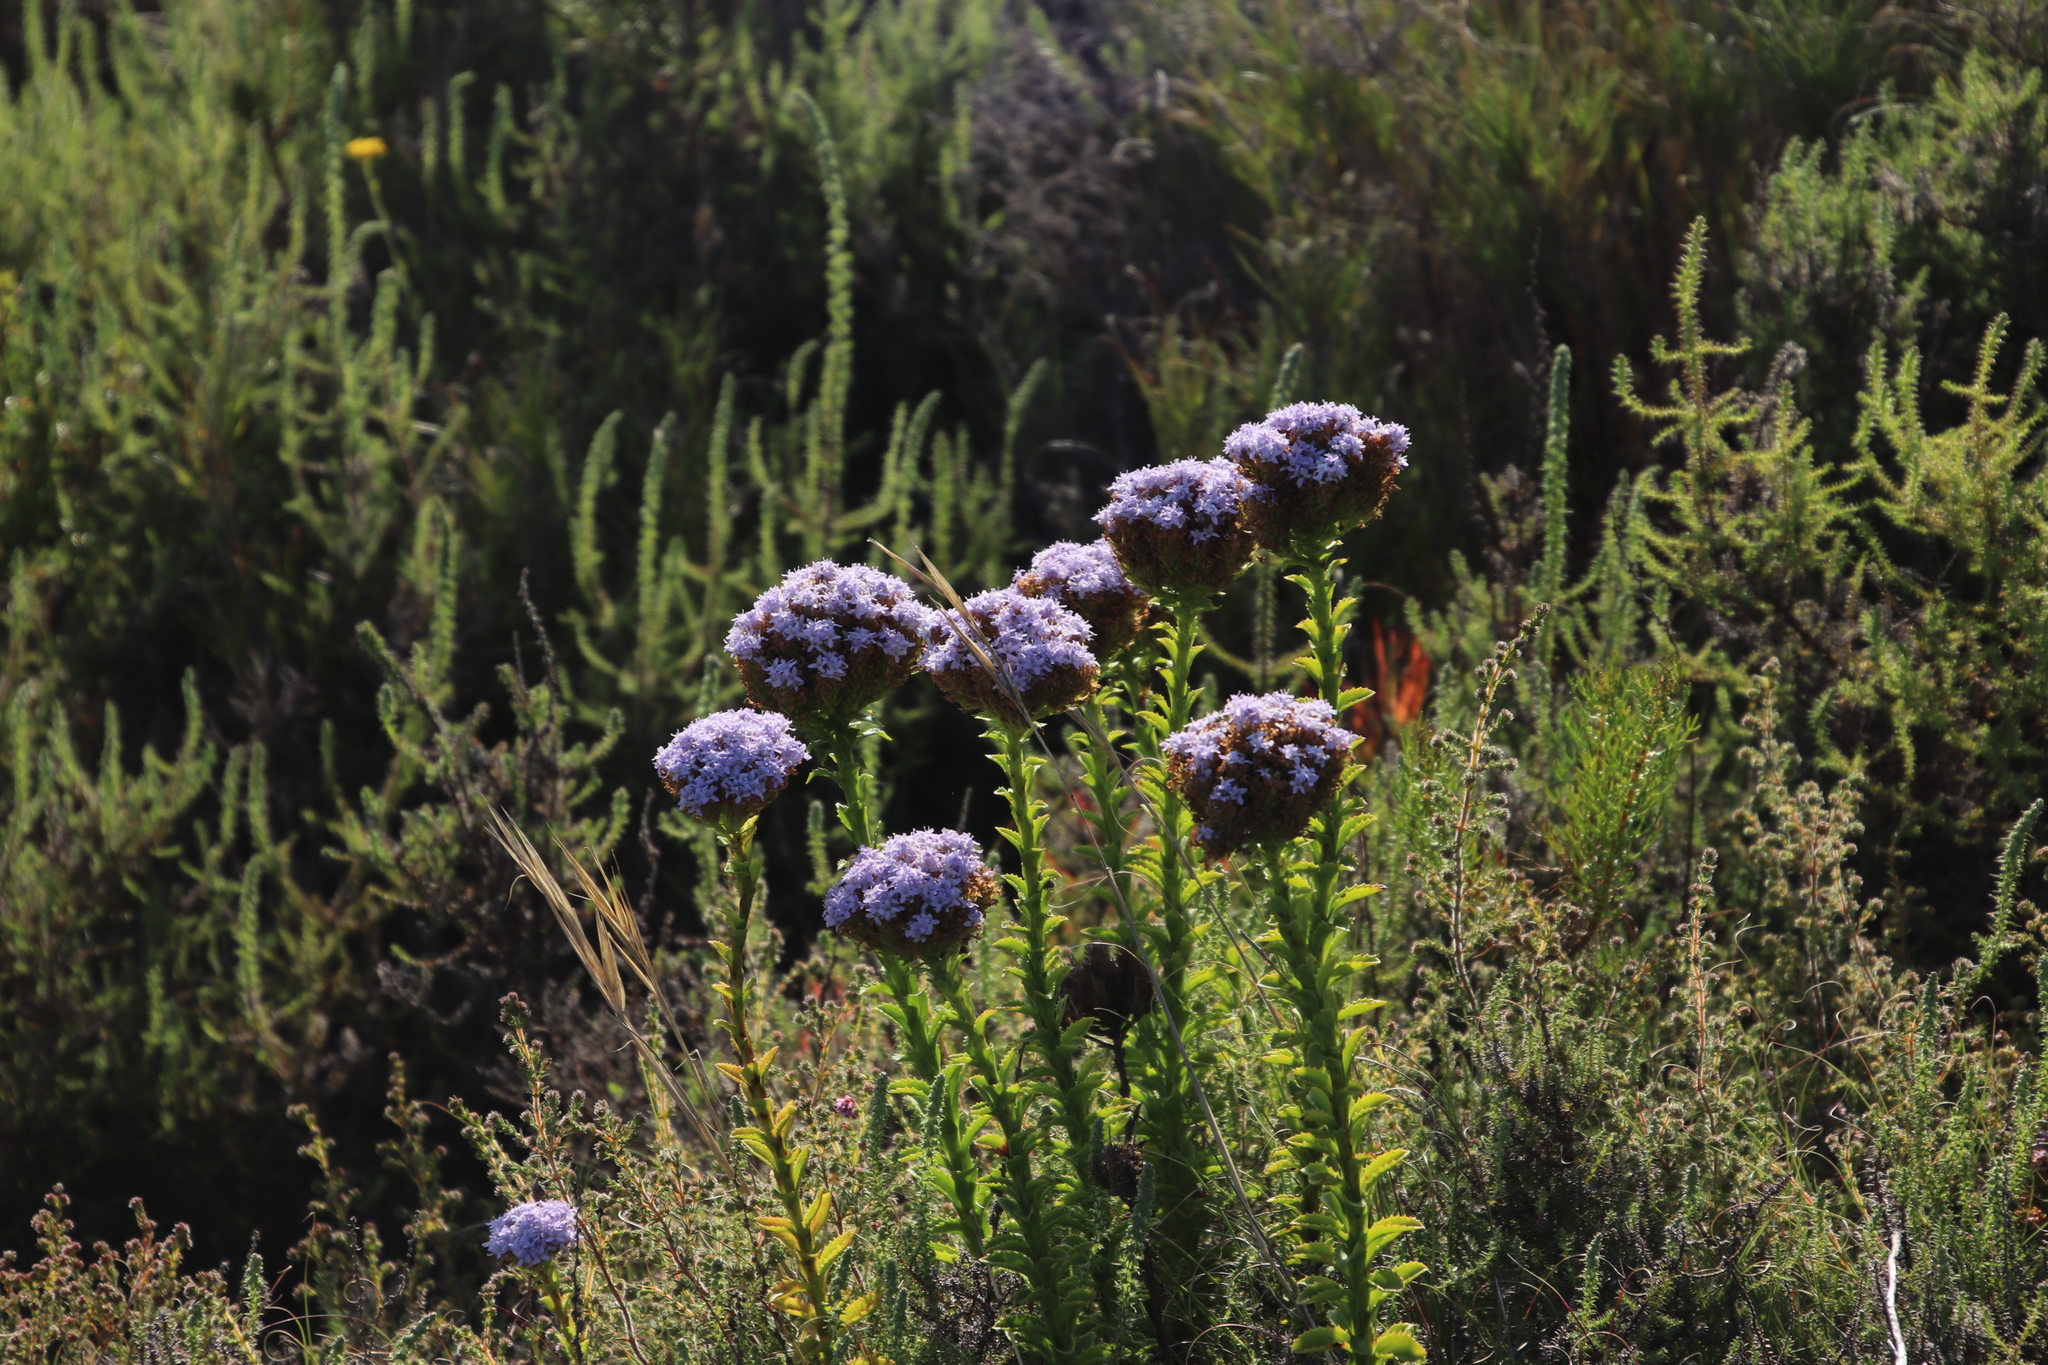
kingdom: Plantae
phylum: Tracheophyta
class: Magnoliopsida
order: Lamiales
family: Scrophulariaceae
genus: Pseudoselago
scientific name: Pseudoselago serrata
